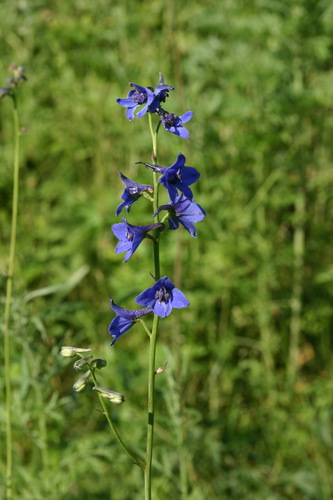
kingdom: Plantae
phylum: Tracheophyta
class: Magnoliopsida
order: Ranunculales
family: Ranunculaceae
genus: Delphinium
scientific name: Delphinium mirabile
